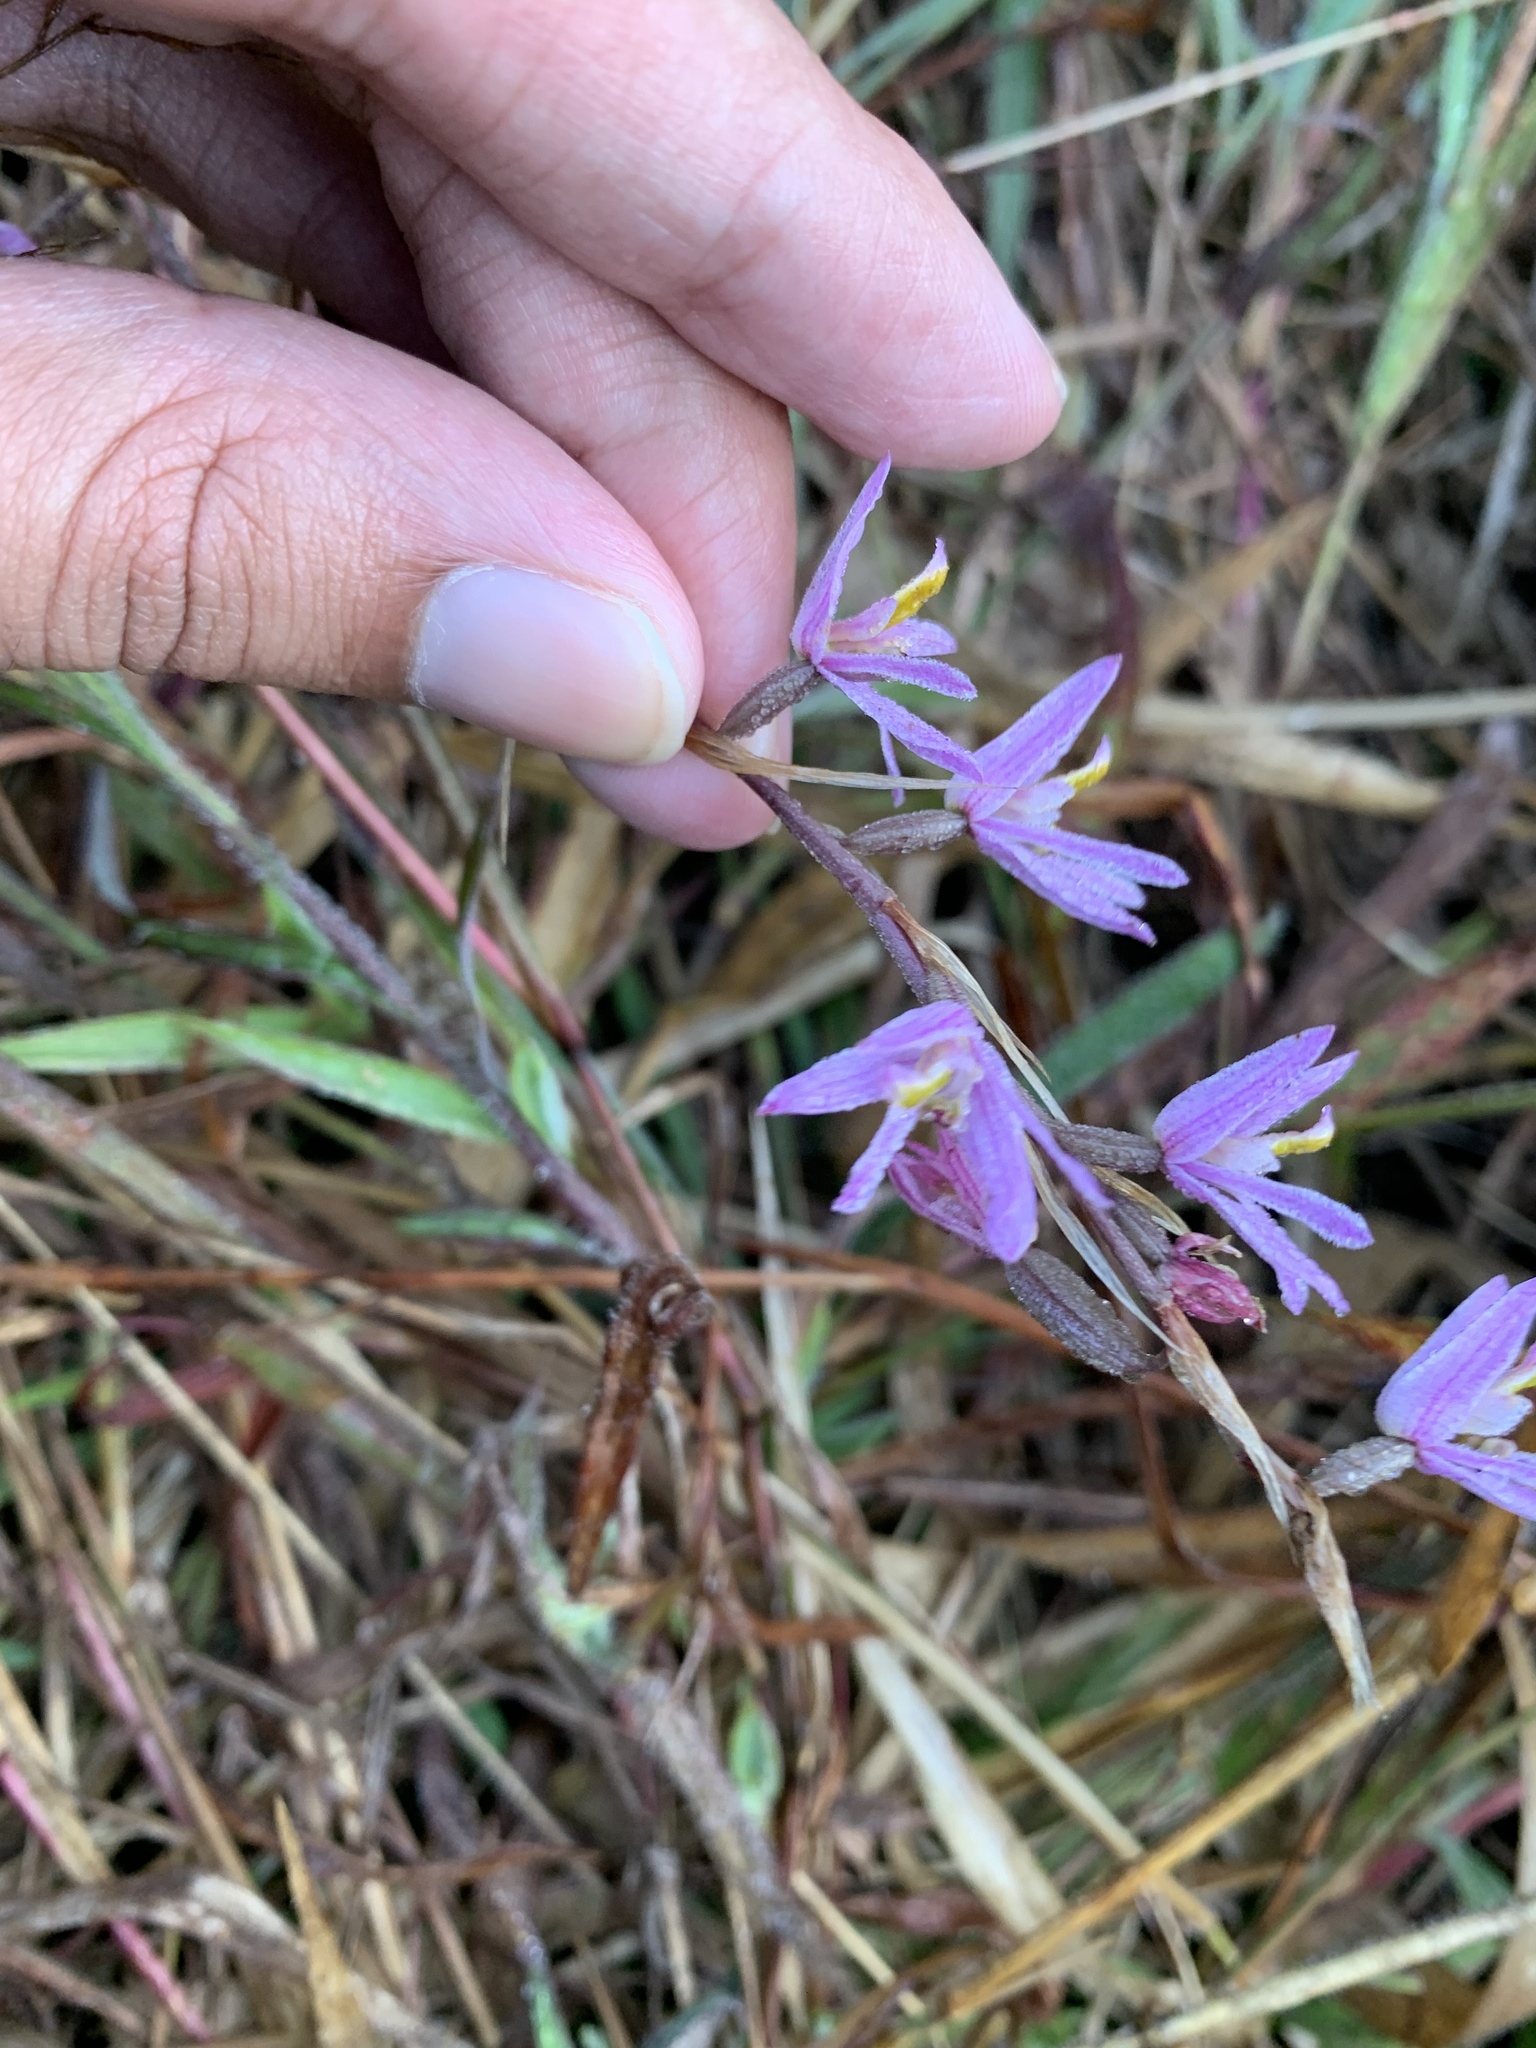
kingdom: Plantae
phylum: Tracheophyta
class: Liliopsida
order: Asparagales
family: Orchidaceae
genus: Pachystoma
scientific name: Pachystoma pubescens
